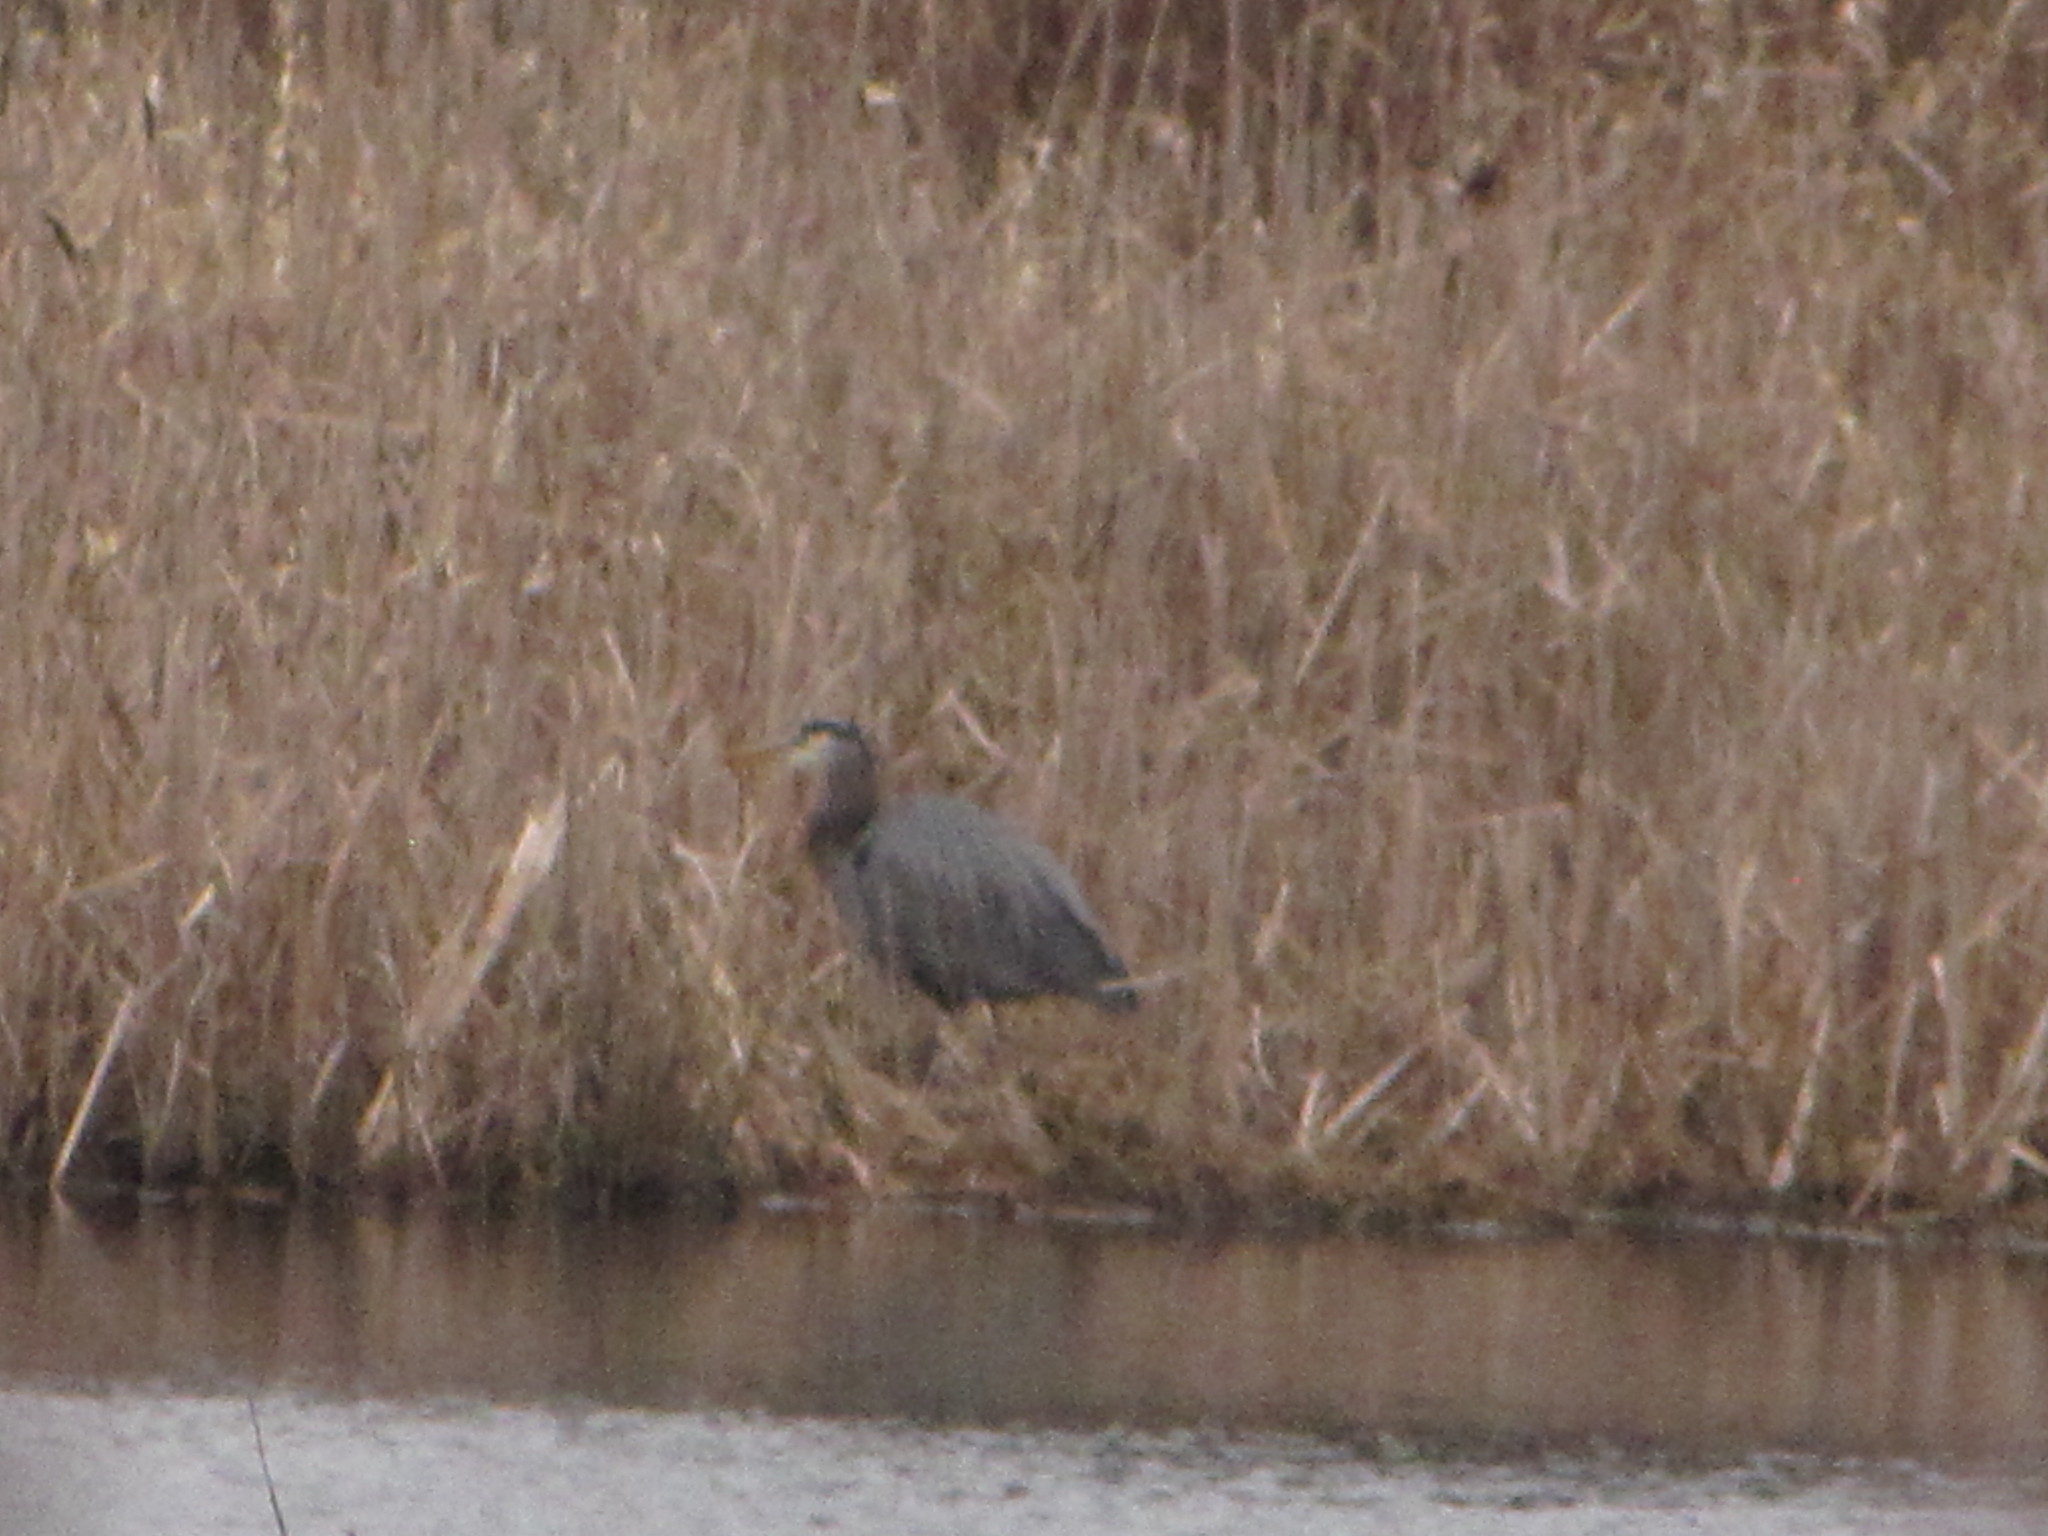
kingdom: Animalia
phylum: Chordata
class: Aves
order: Pelecaniformes
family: Ardeidae
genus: Ardea
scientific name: Ardea herodias
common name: Great blue heron
